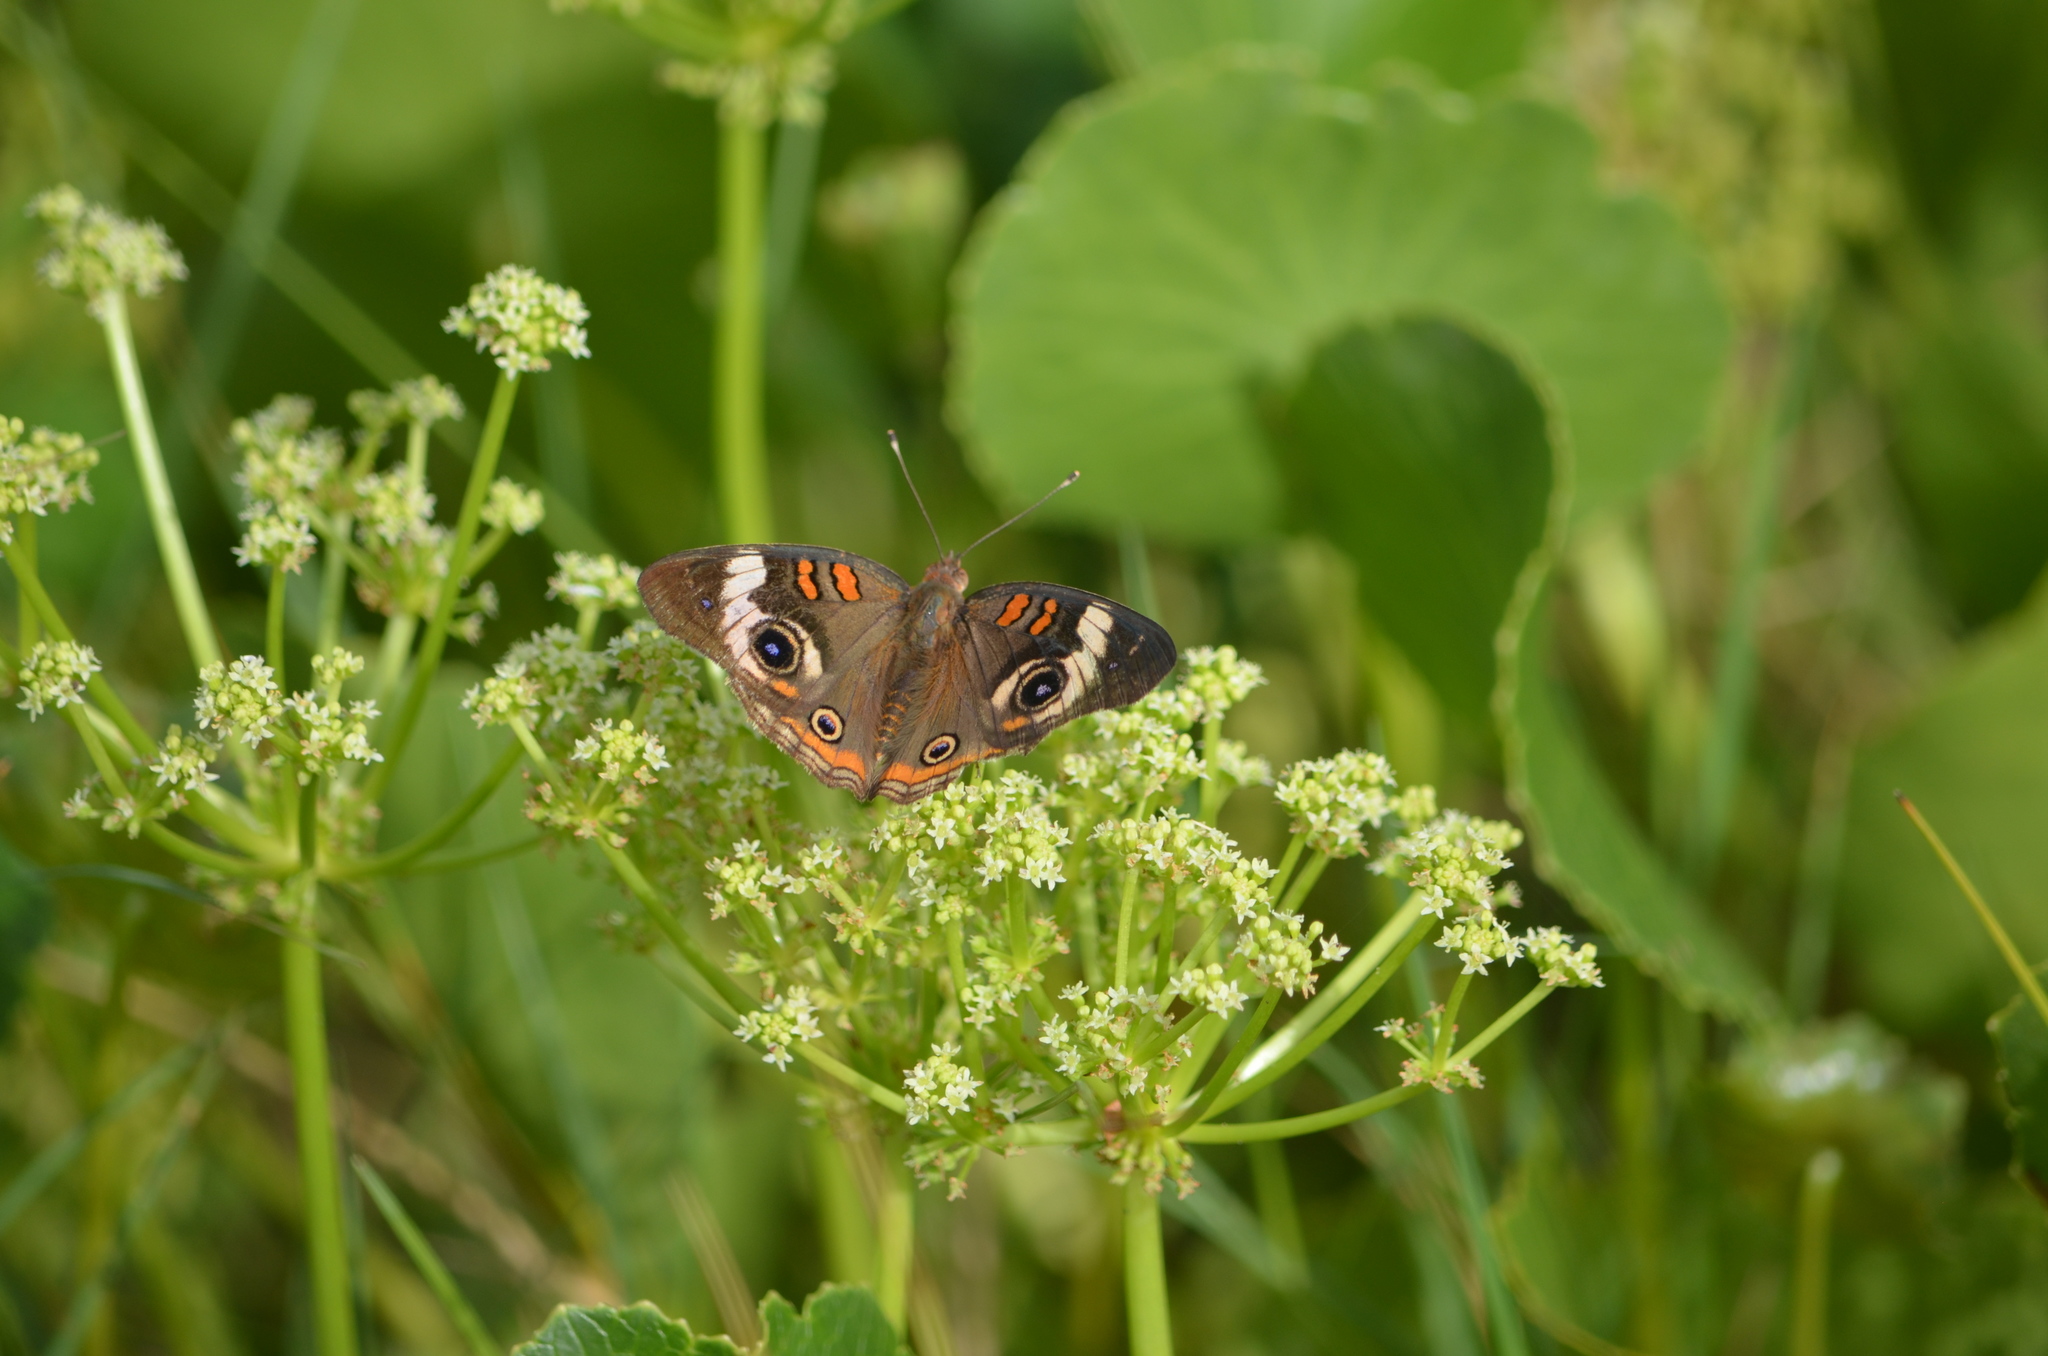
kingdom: Animalia
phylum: Arthropoda
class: Insecta
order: Lepidoptera
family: Nymphalidae
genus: Junonia
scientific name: Junonia coenia
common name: Common buckeye
